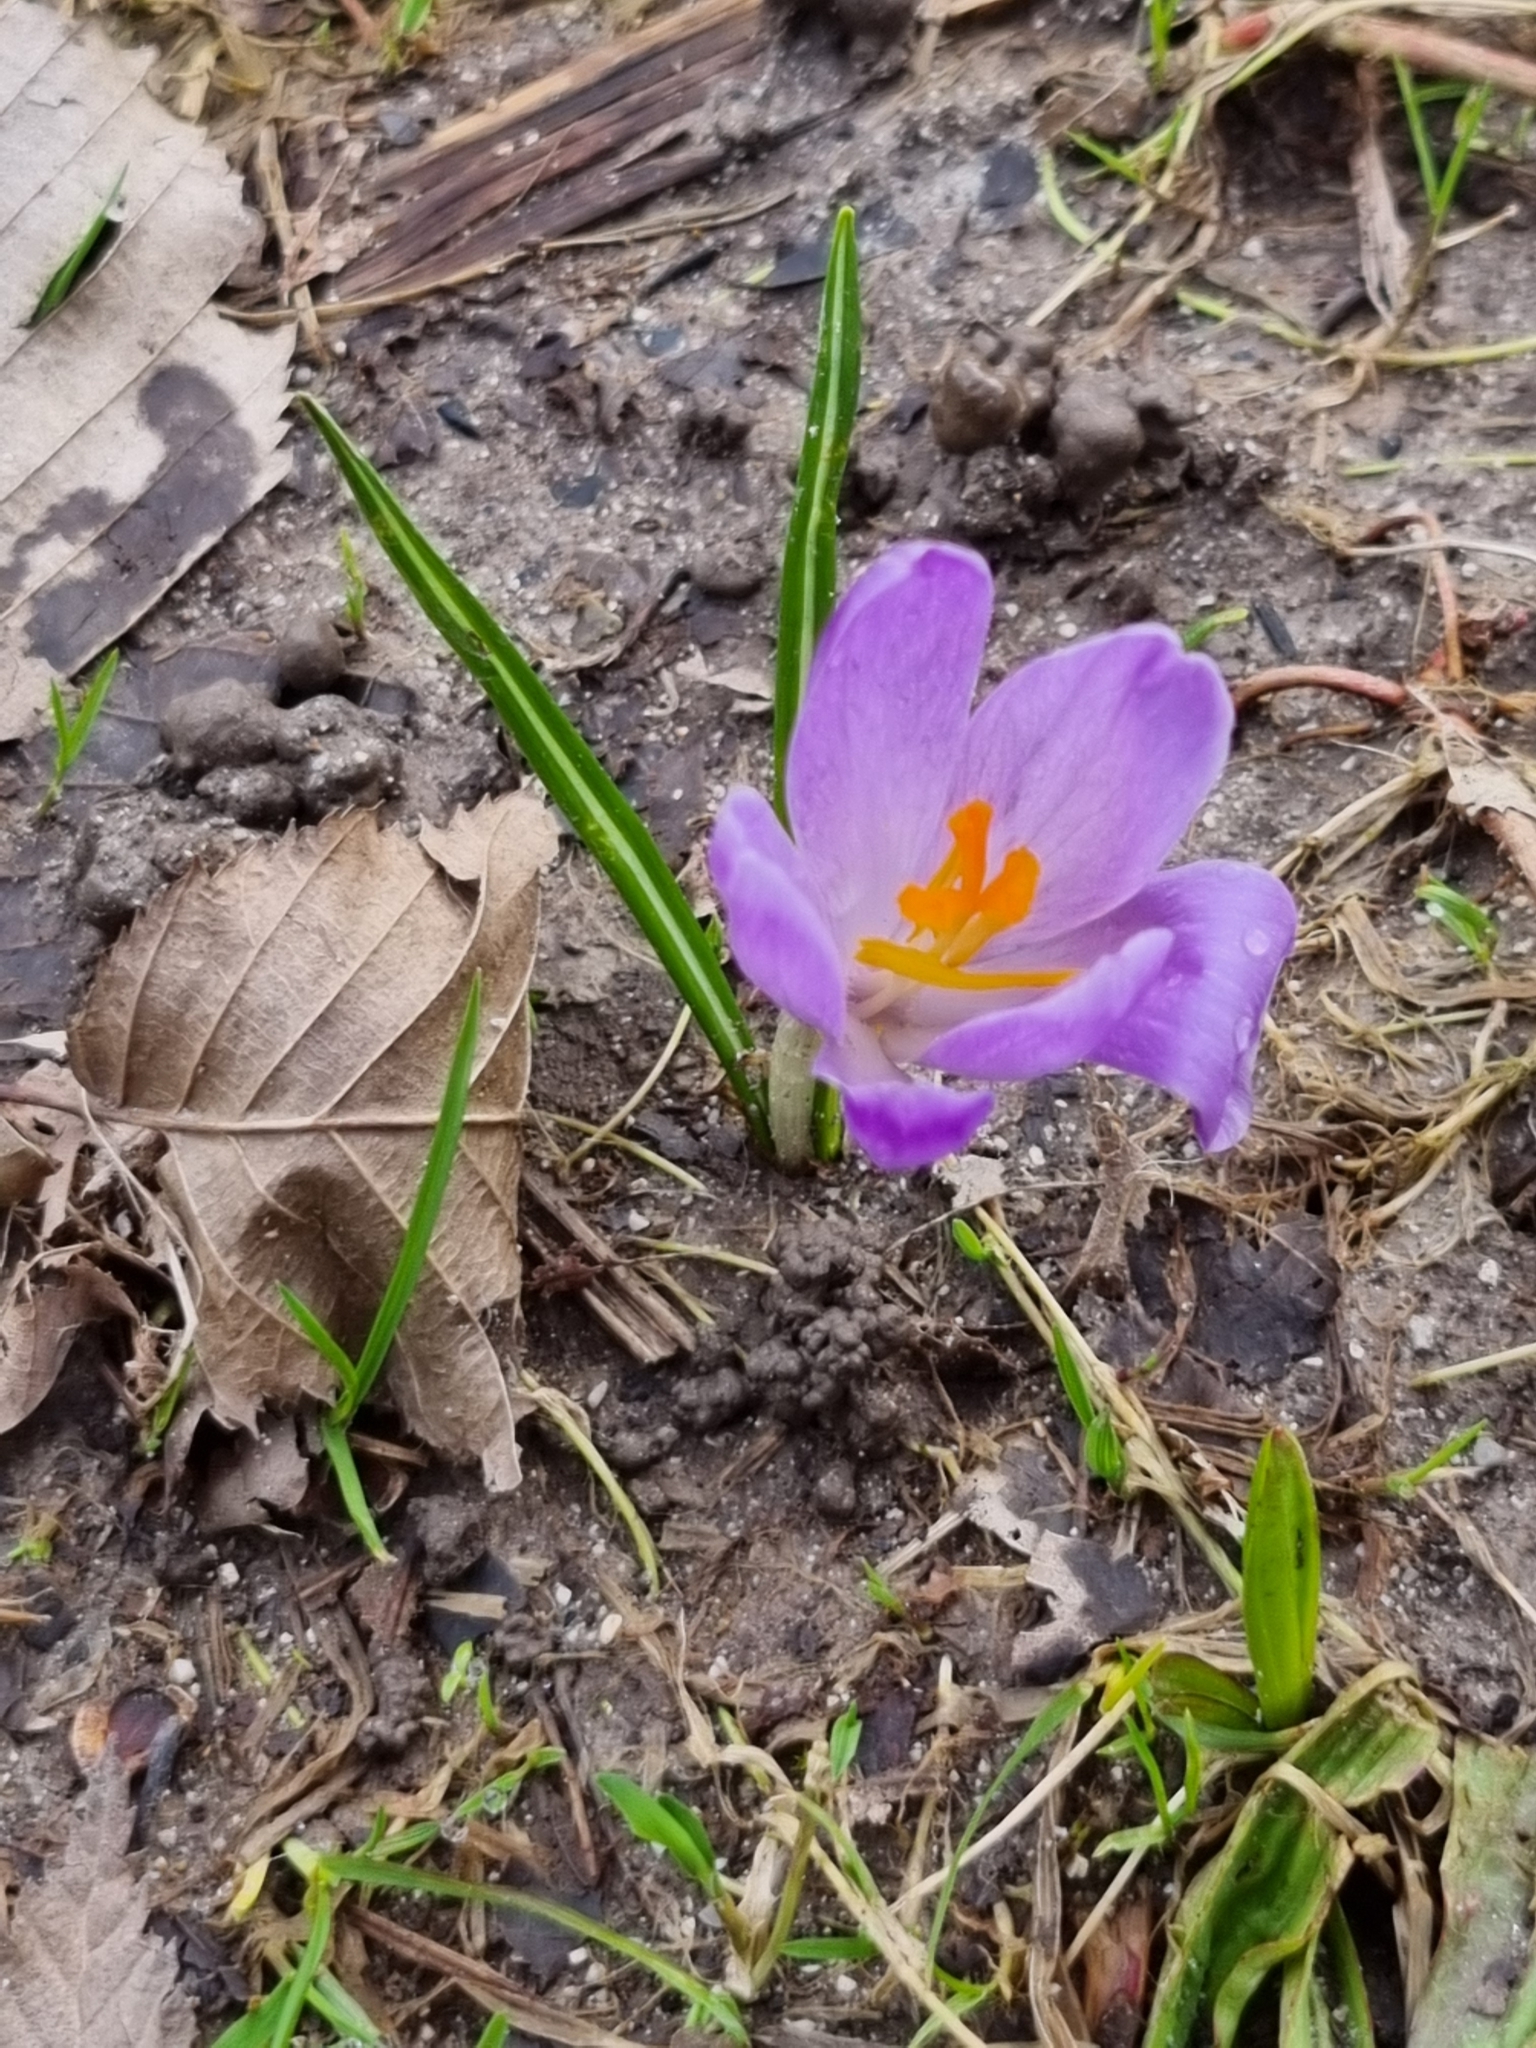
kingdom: Plantae
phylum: Tracheophyta
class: Liliopsida
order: Asparagales
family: Iridaceae
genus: Crocus
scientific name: Crocus heuffelianus
